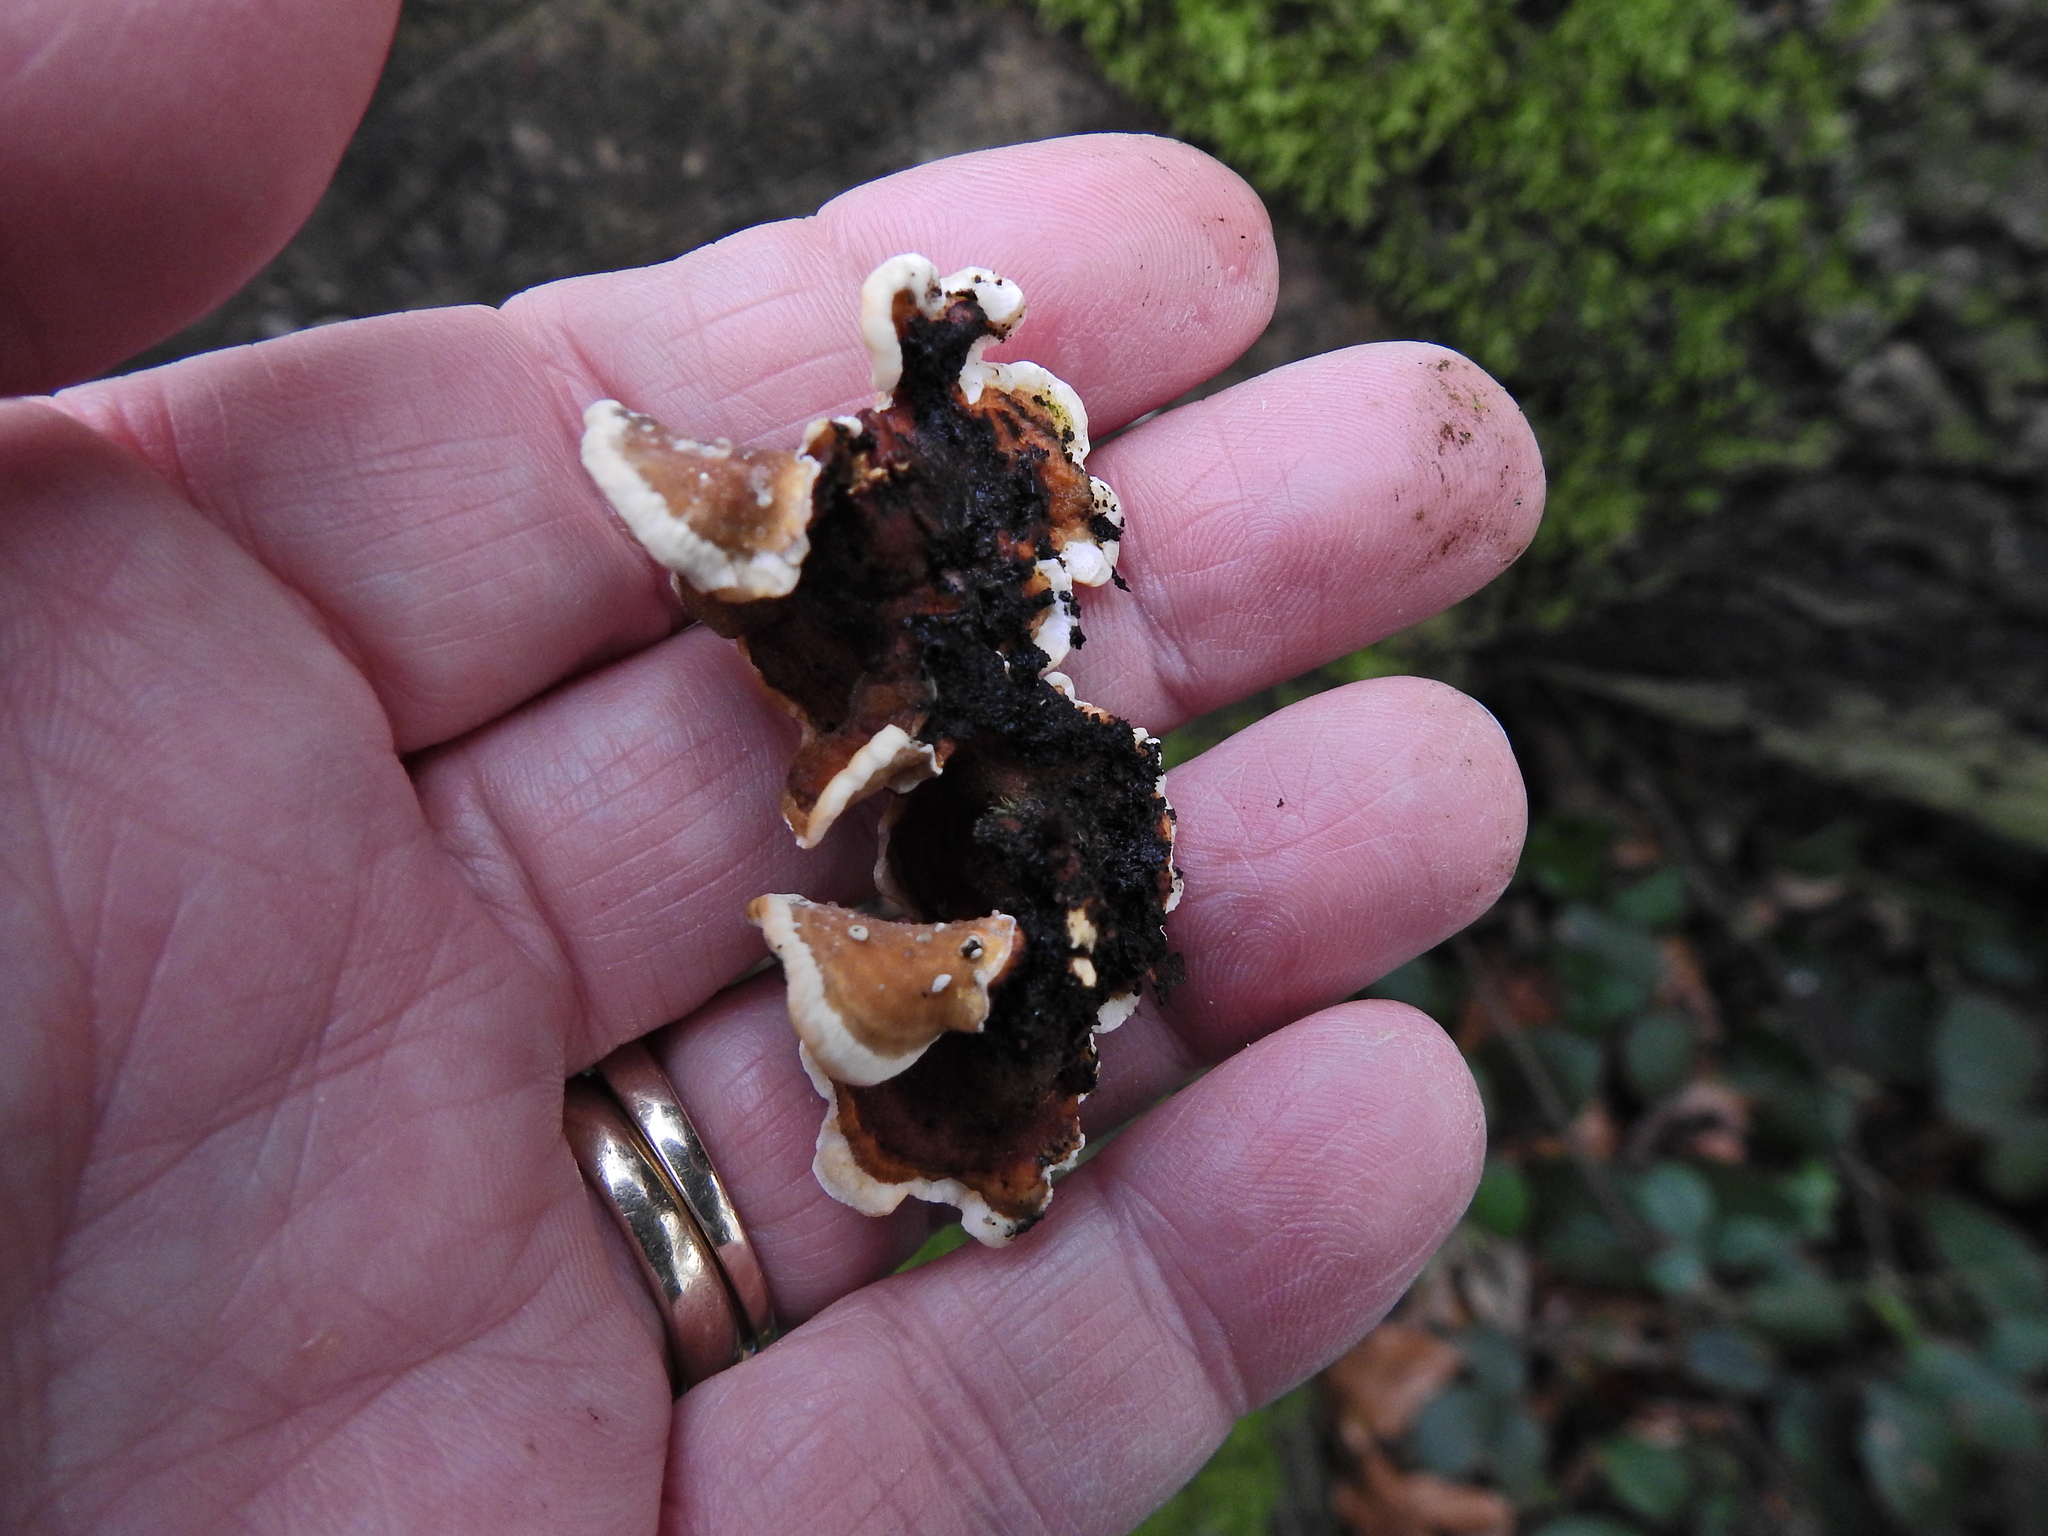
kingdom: Fungi
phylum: Basidiomycota
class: Agaricomycetes
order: Russulales
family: Stereaceae
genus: Stereum
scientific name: Stereum hirsutum
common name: Hairy curtain crust
